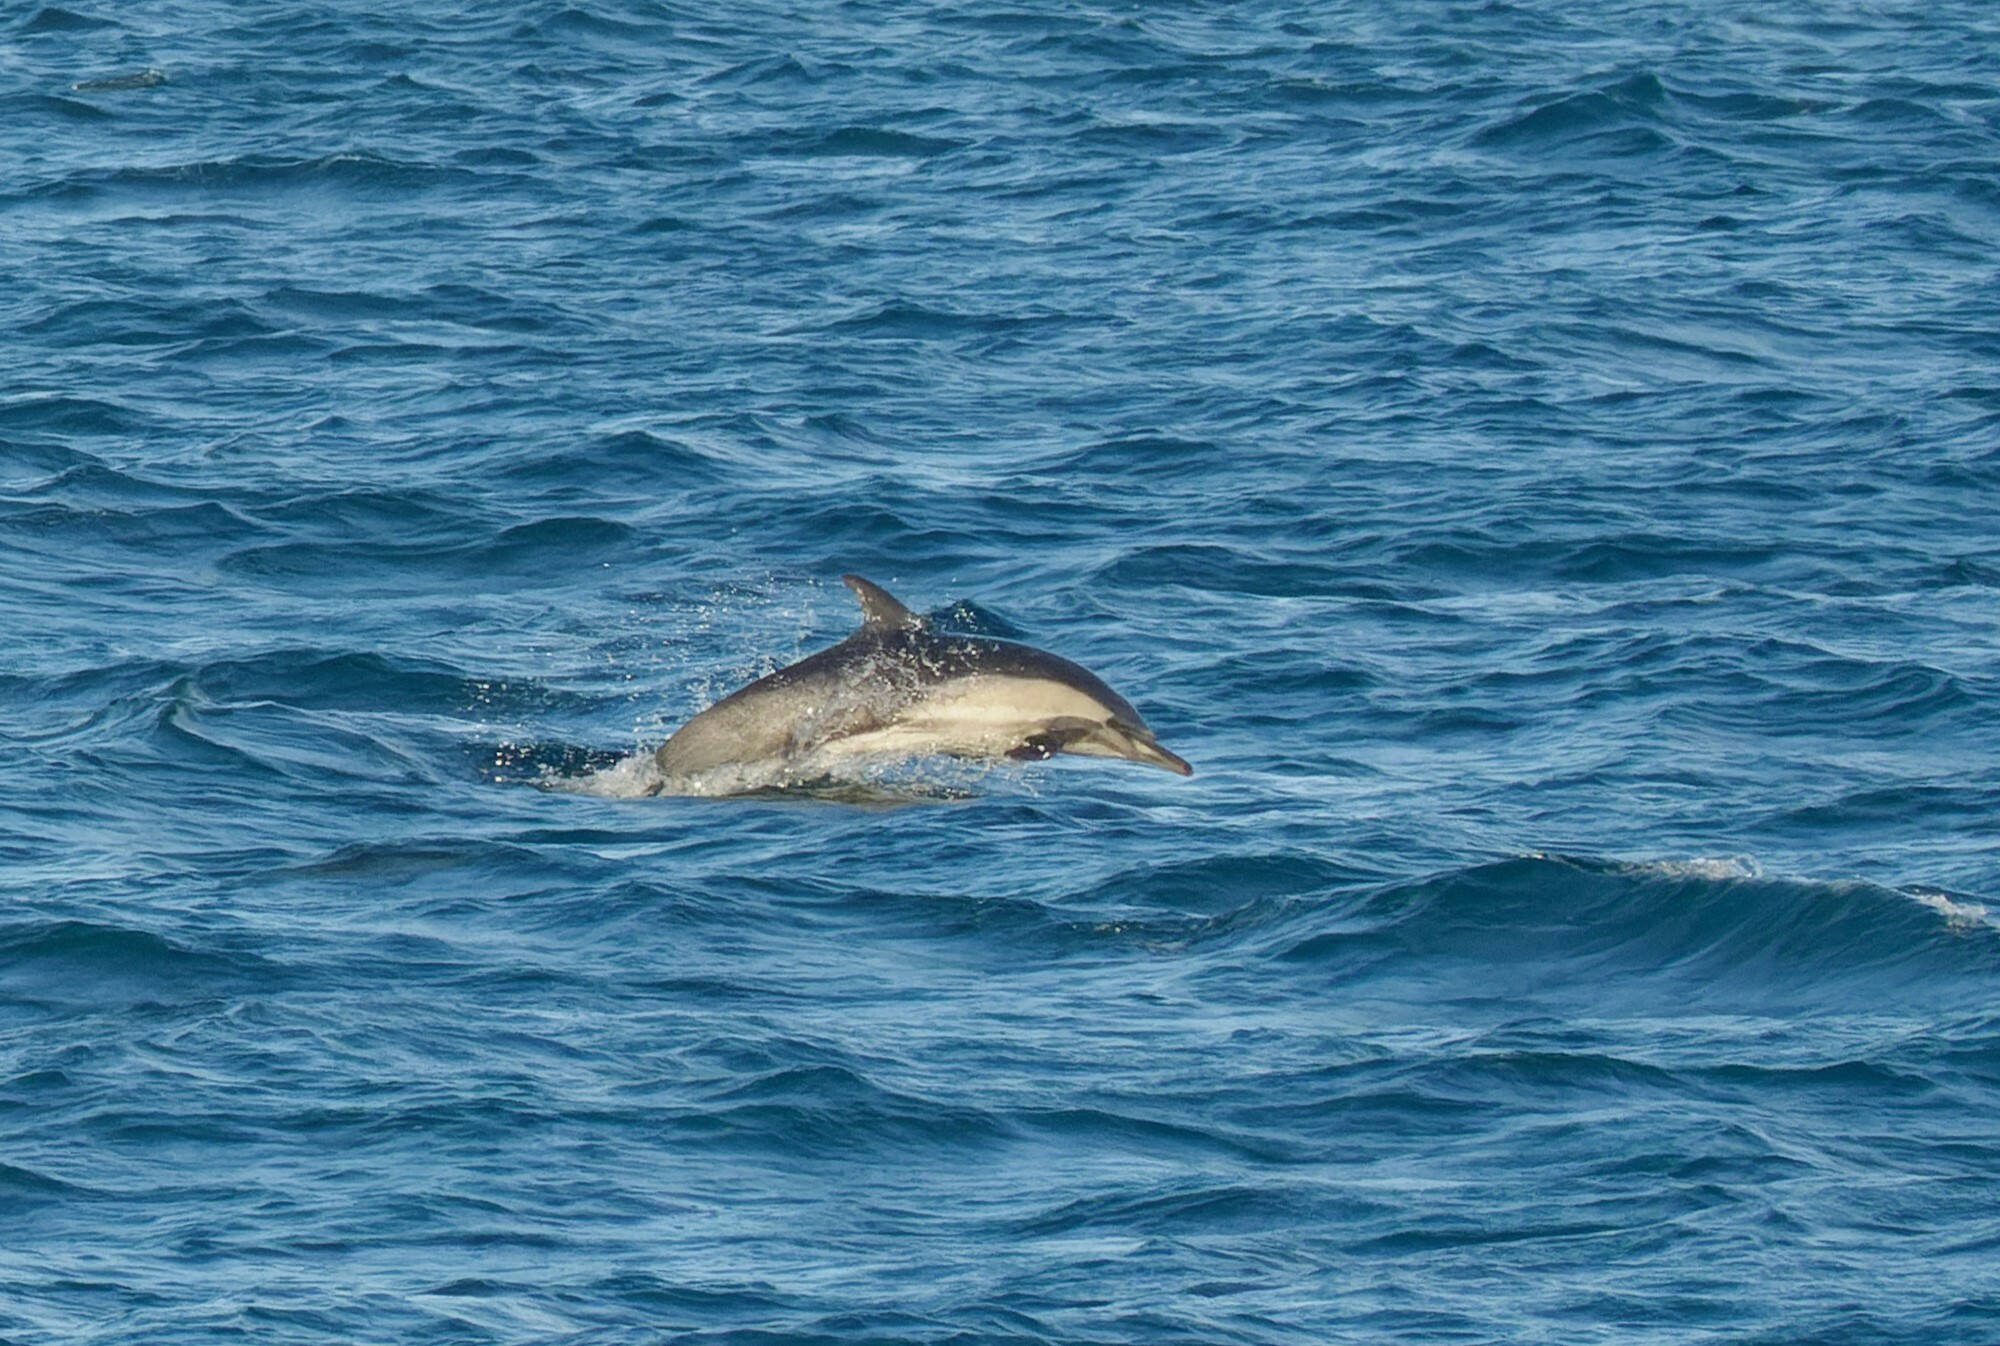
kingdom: Animalia
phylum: Chordata
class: Mammalia
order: Cetacea
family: Delphinidae
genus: Delphinus
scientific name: Delphinus delphis
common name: Common dolphin
